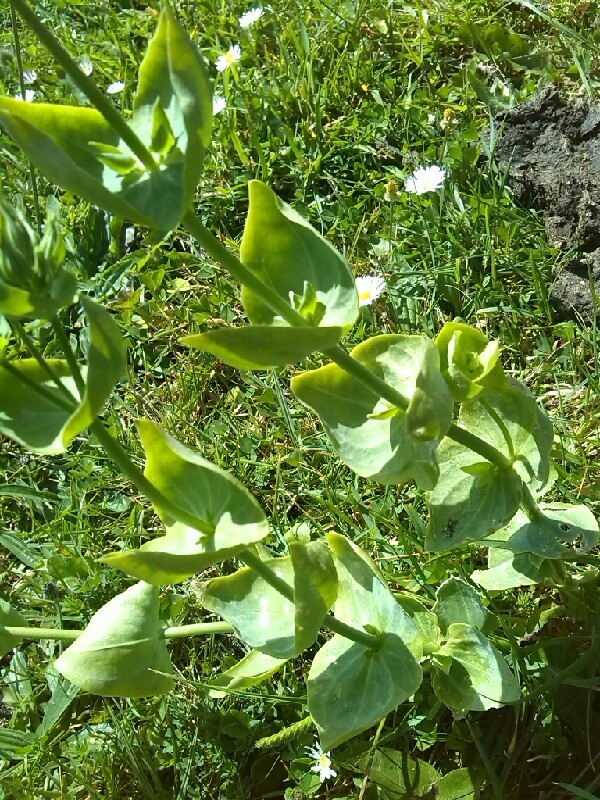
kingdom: Plantae
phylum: Tracheophyta
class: Magnoliopsida
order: Gentianales
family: Gentianaceae
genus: Blackstonia
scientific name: Blackstonia perfoliata
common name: Yellow-wort
